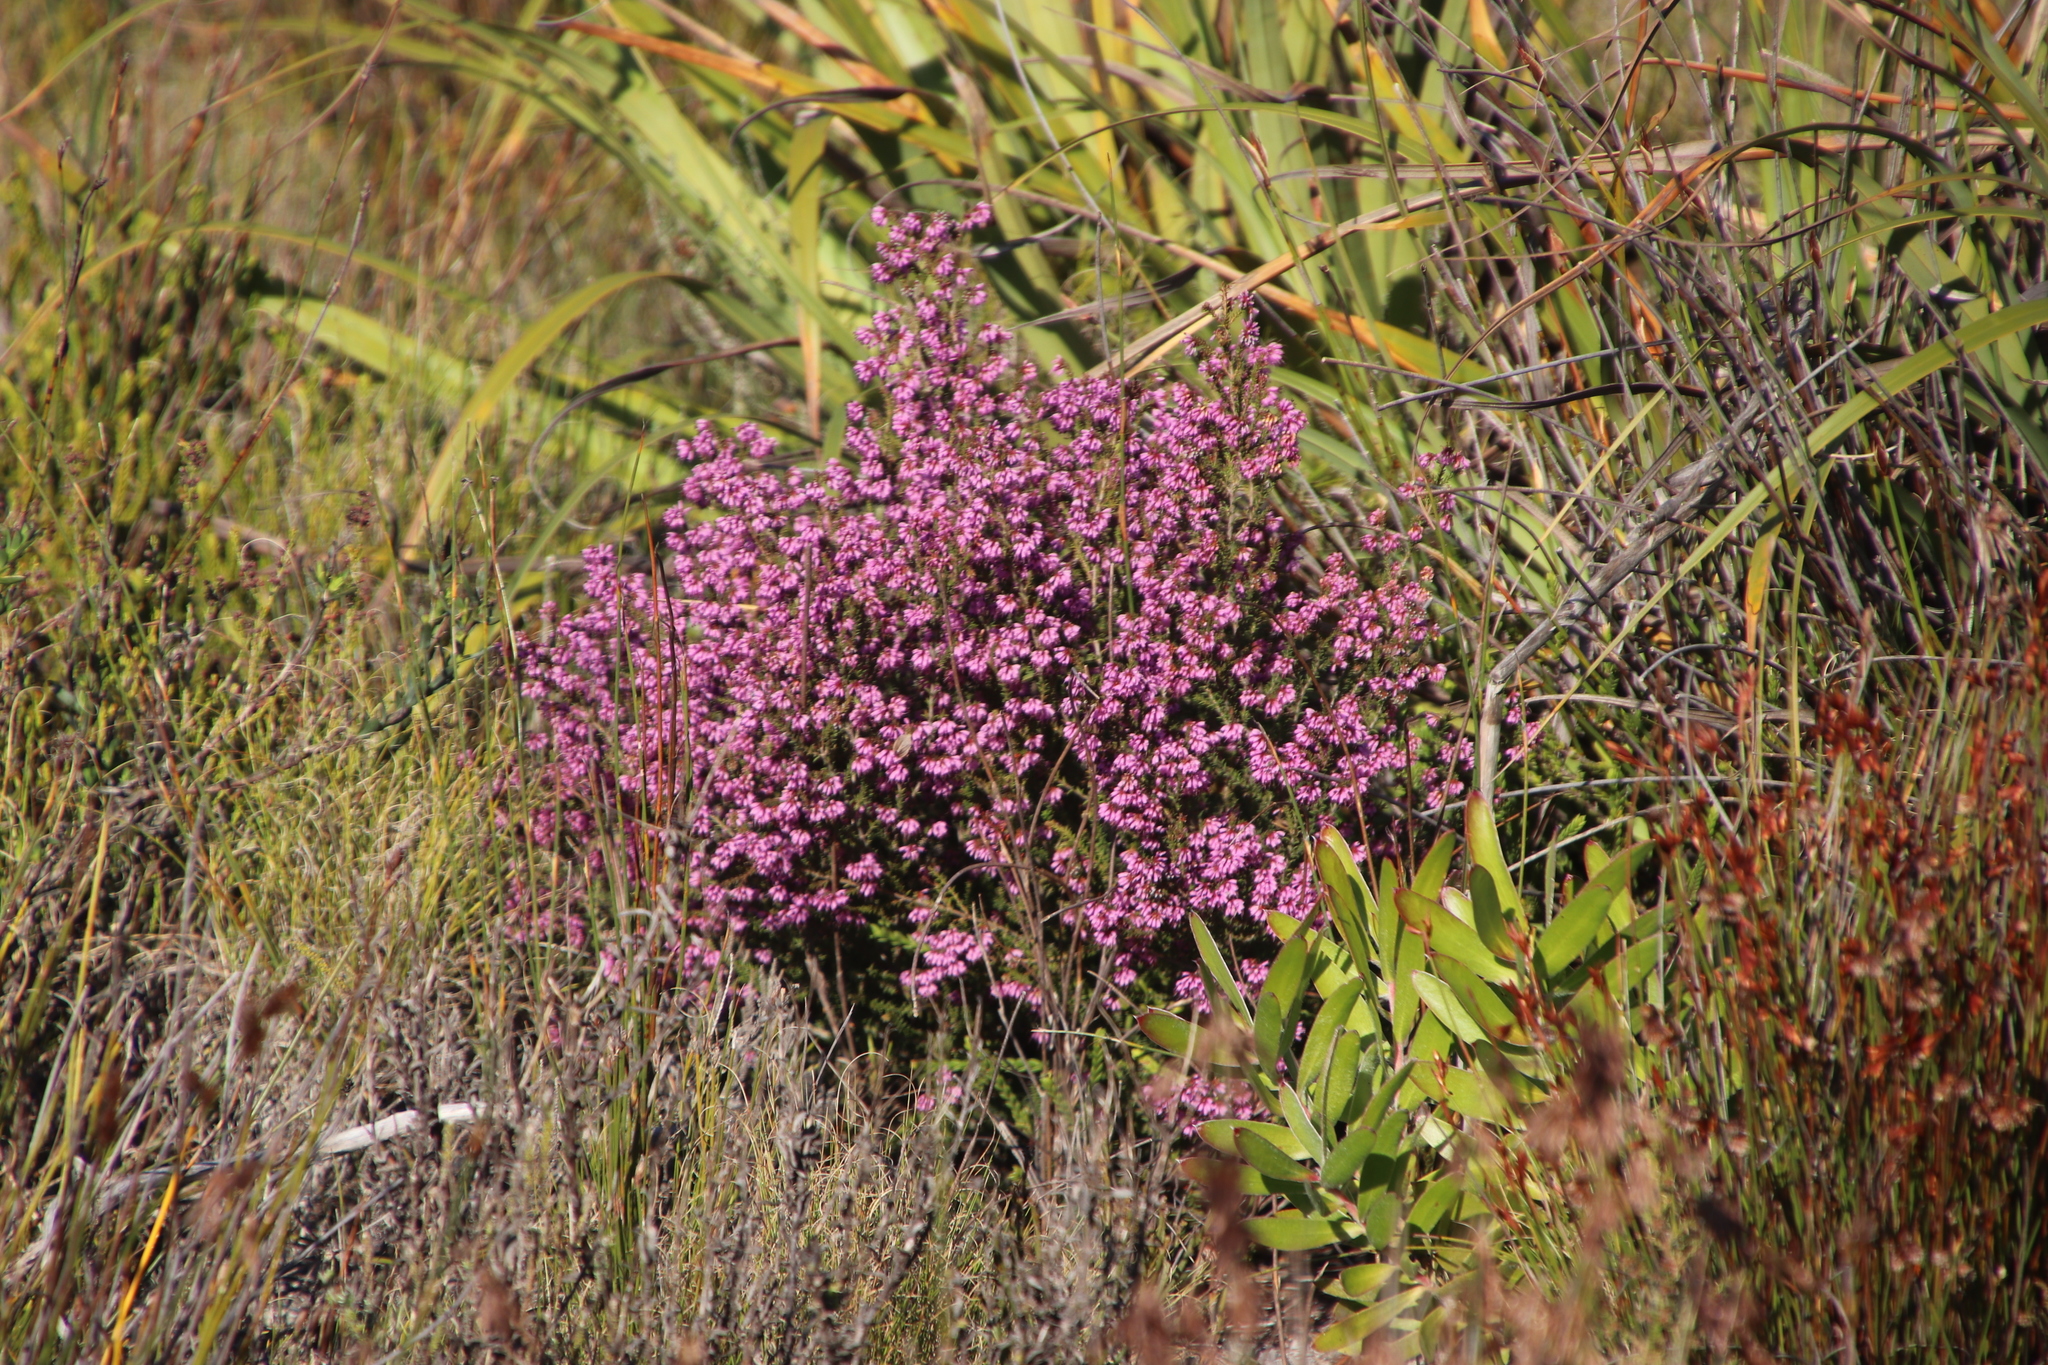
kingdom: Plantae
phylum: Tracheophyta
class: Magnoliopsida
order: Ericales
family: Ericaceae
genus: Erica
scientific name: Erica glabella
